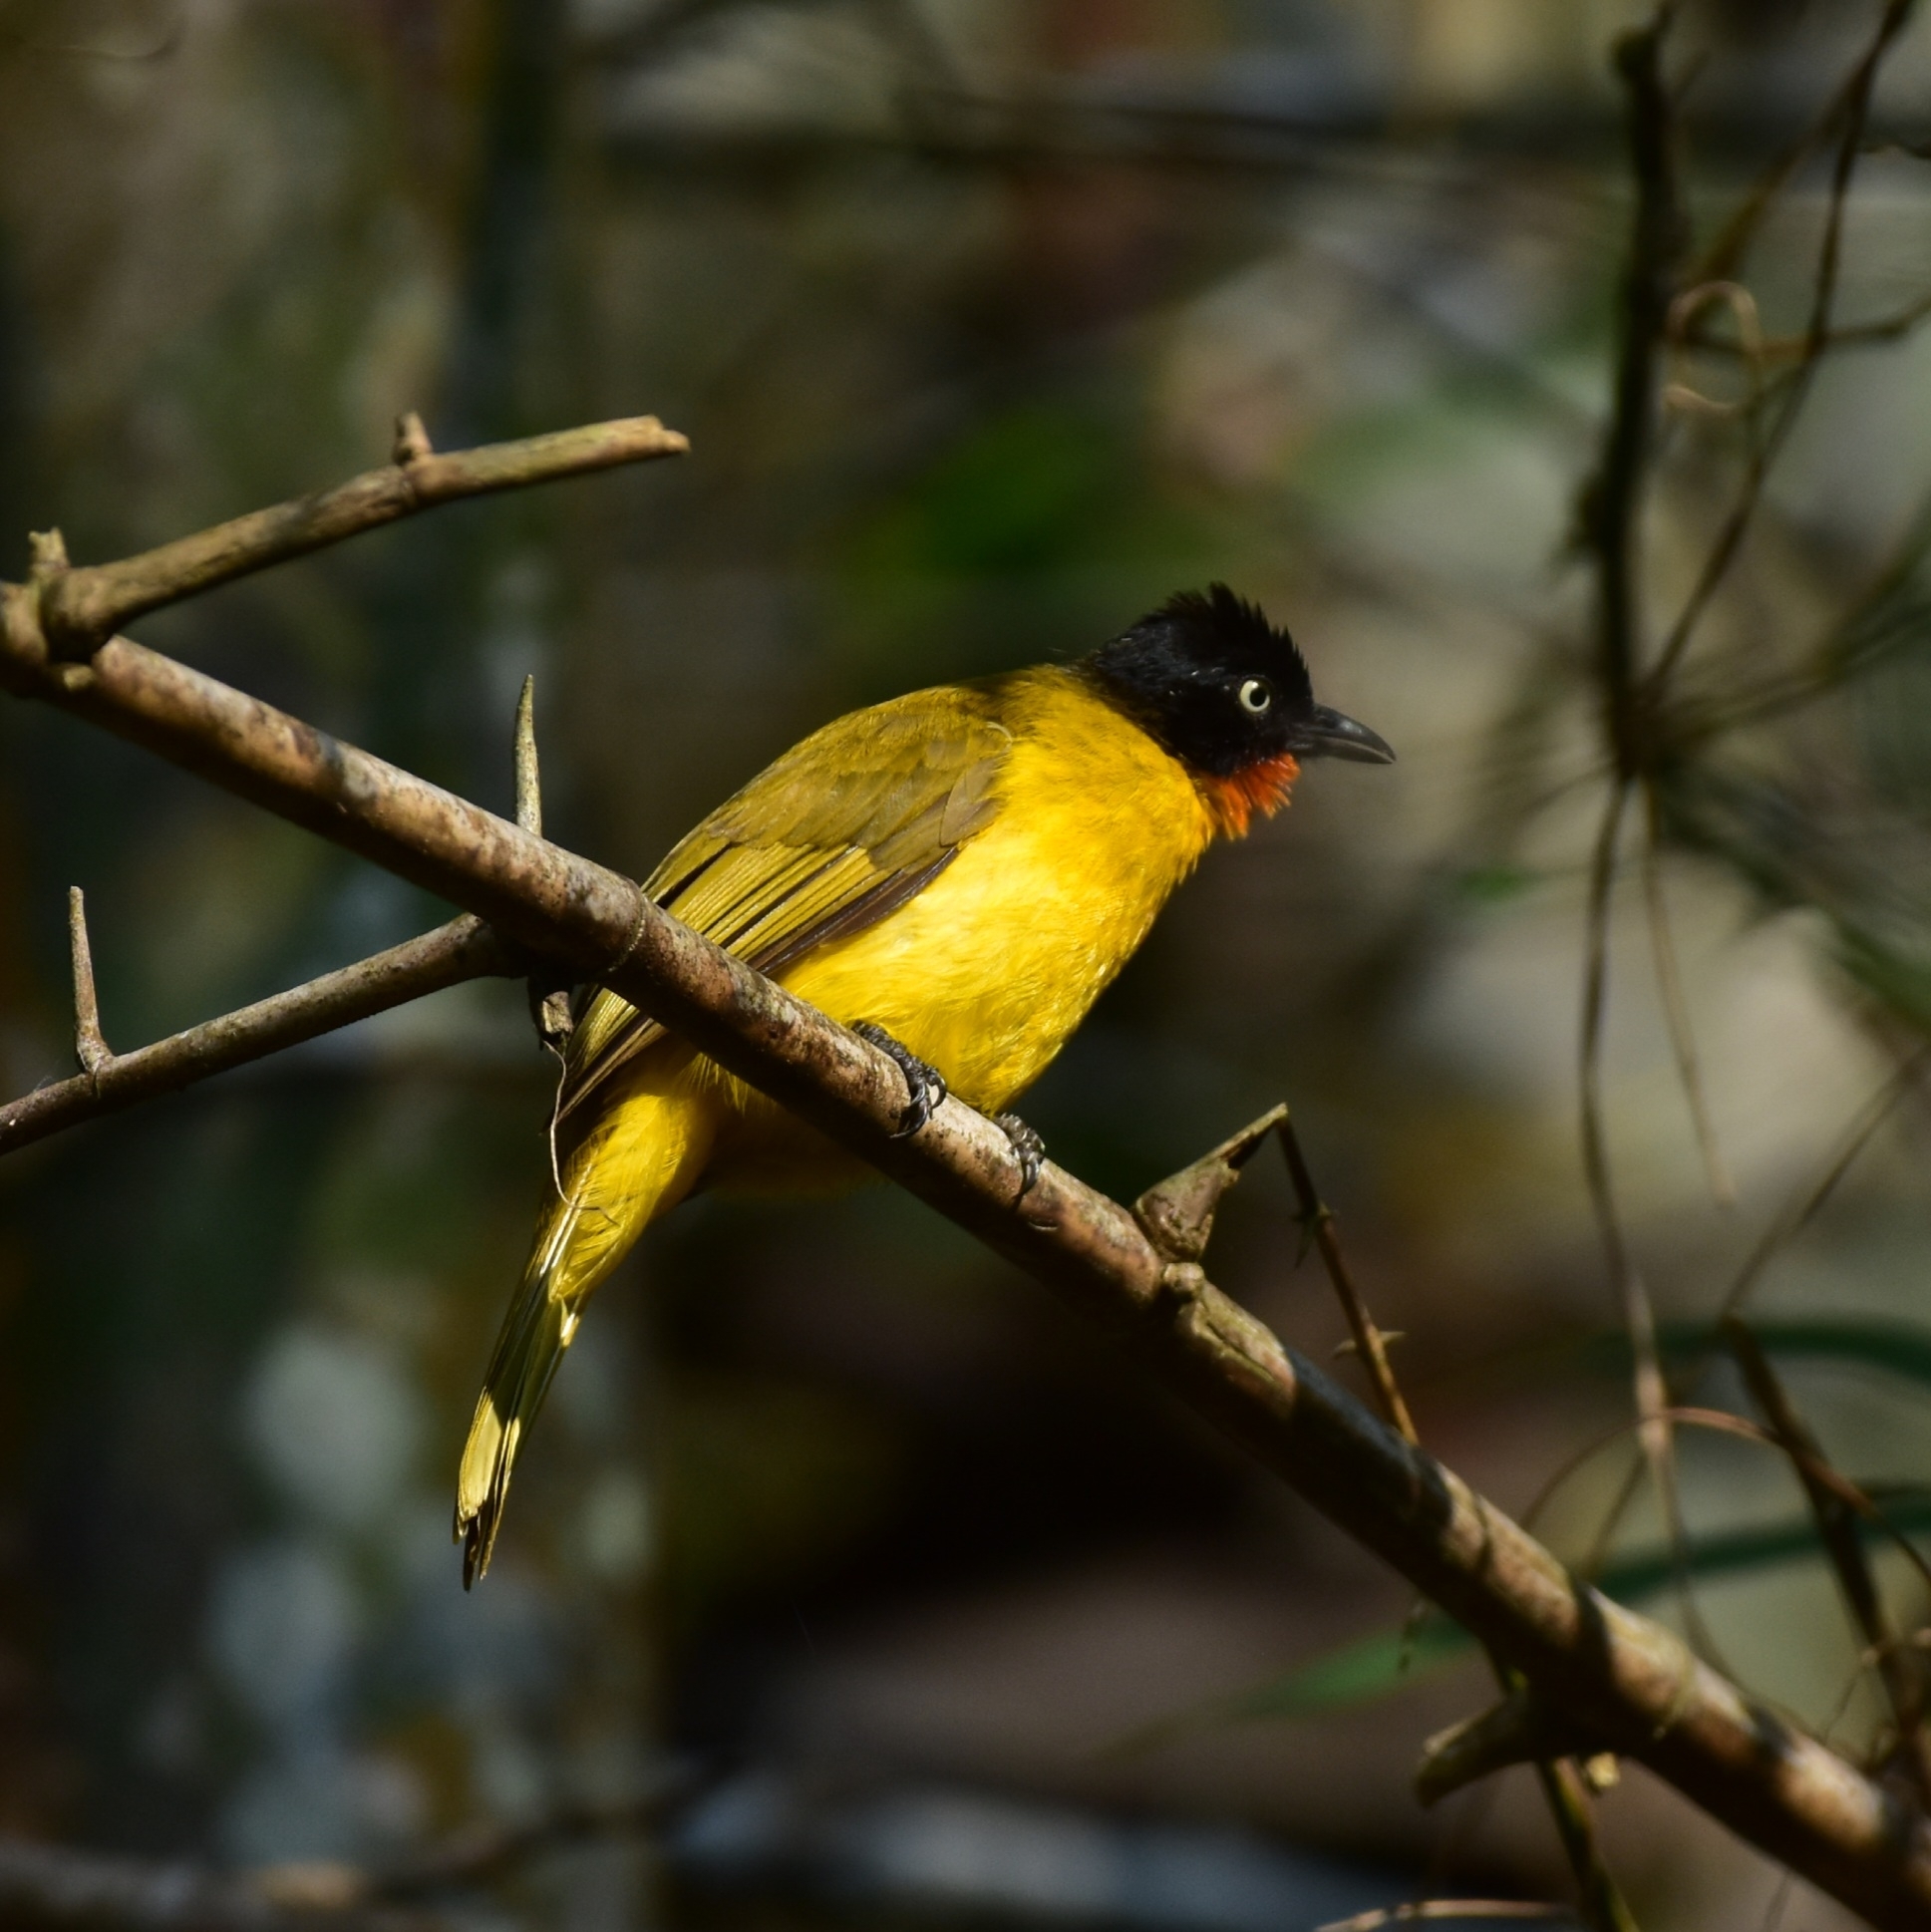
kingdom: Animalia
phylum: Chordata
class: Aves
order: Passeriformes
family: Pycnonotidae
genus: Pycnonotus
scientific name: Pycnonotus gularis
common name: Flame-throated bulbul
